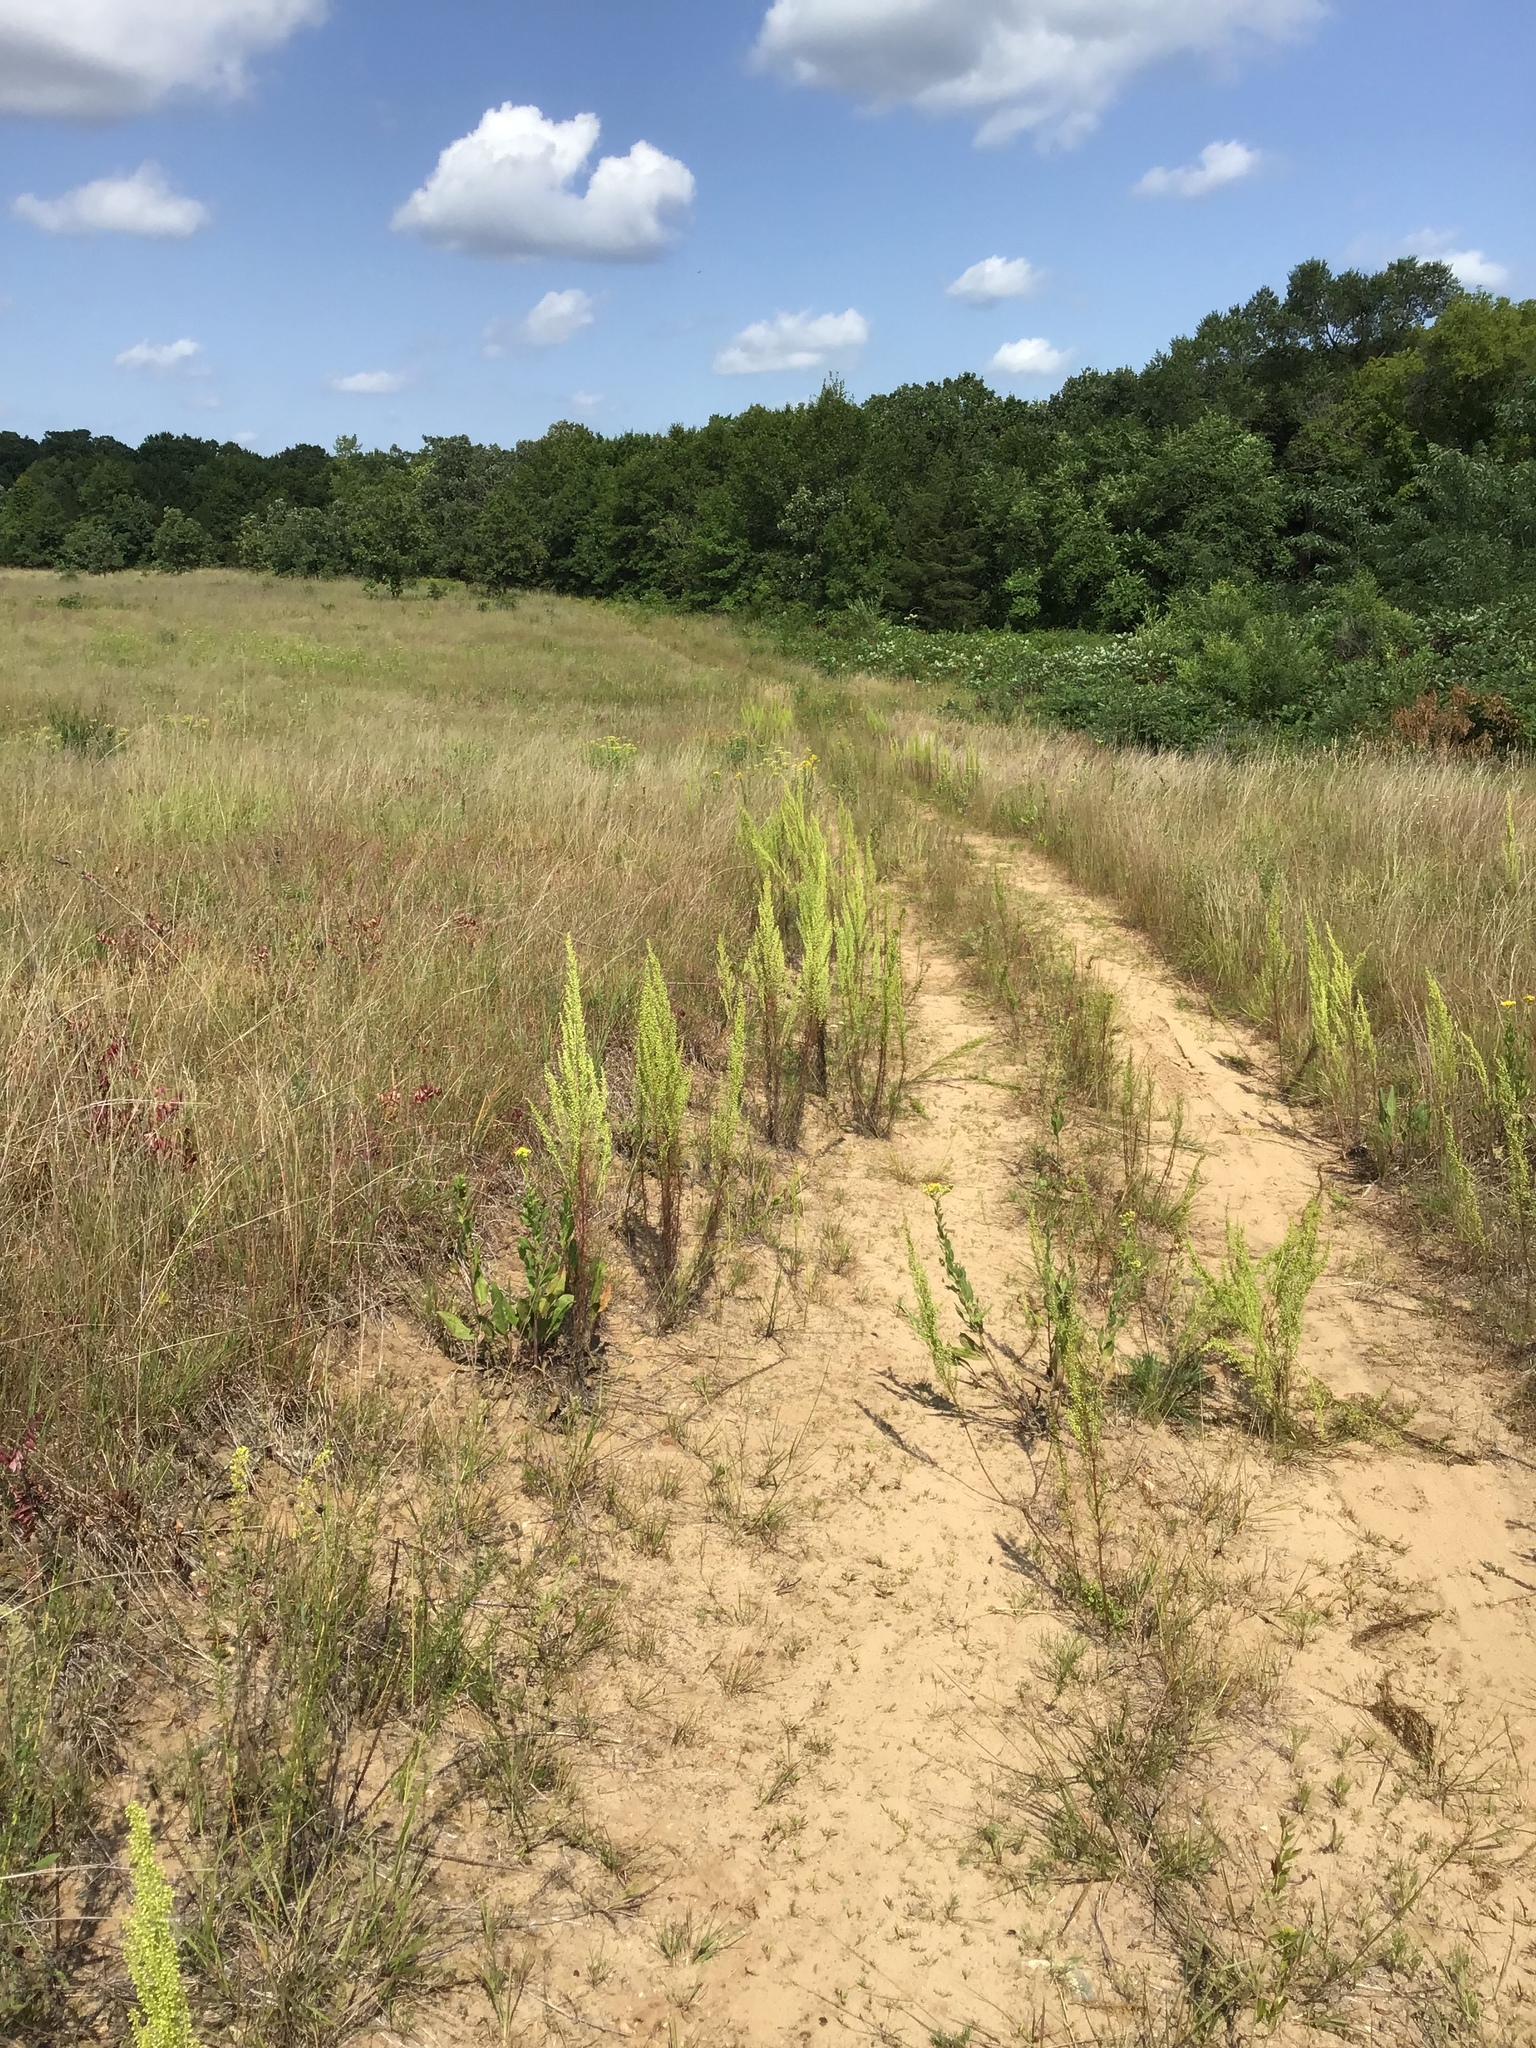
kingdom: Plantae
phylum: Tracheophyta
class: Magnoliopsida
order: Asterales
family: Asteraceae
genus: Artemisia
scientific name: Artemisia campestris
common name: Field wormwood
